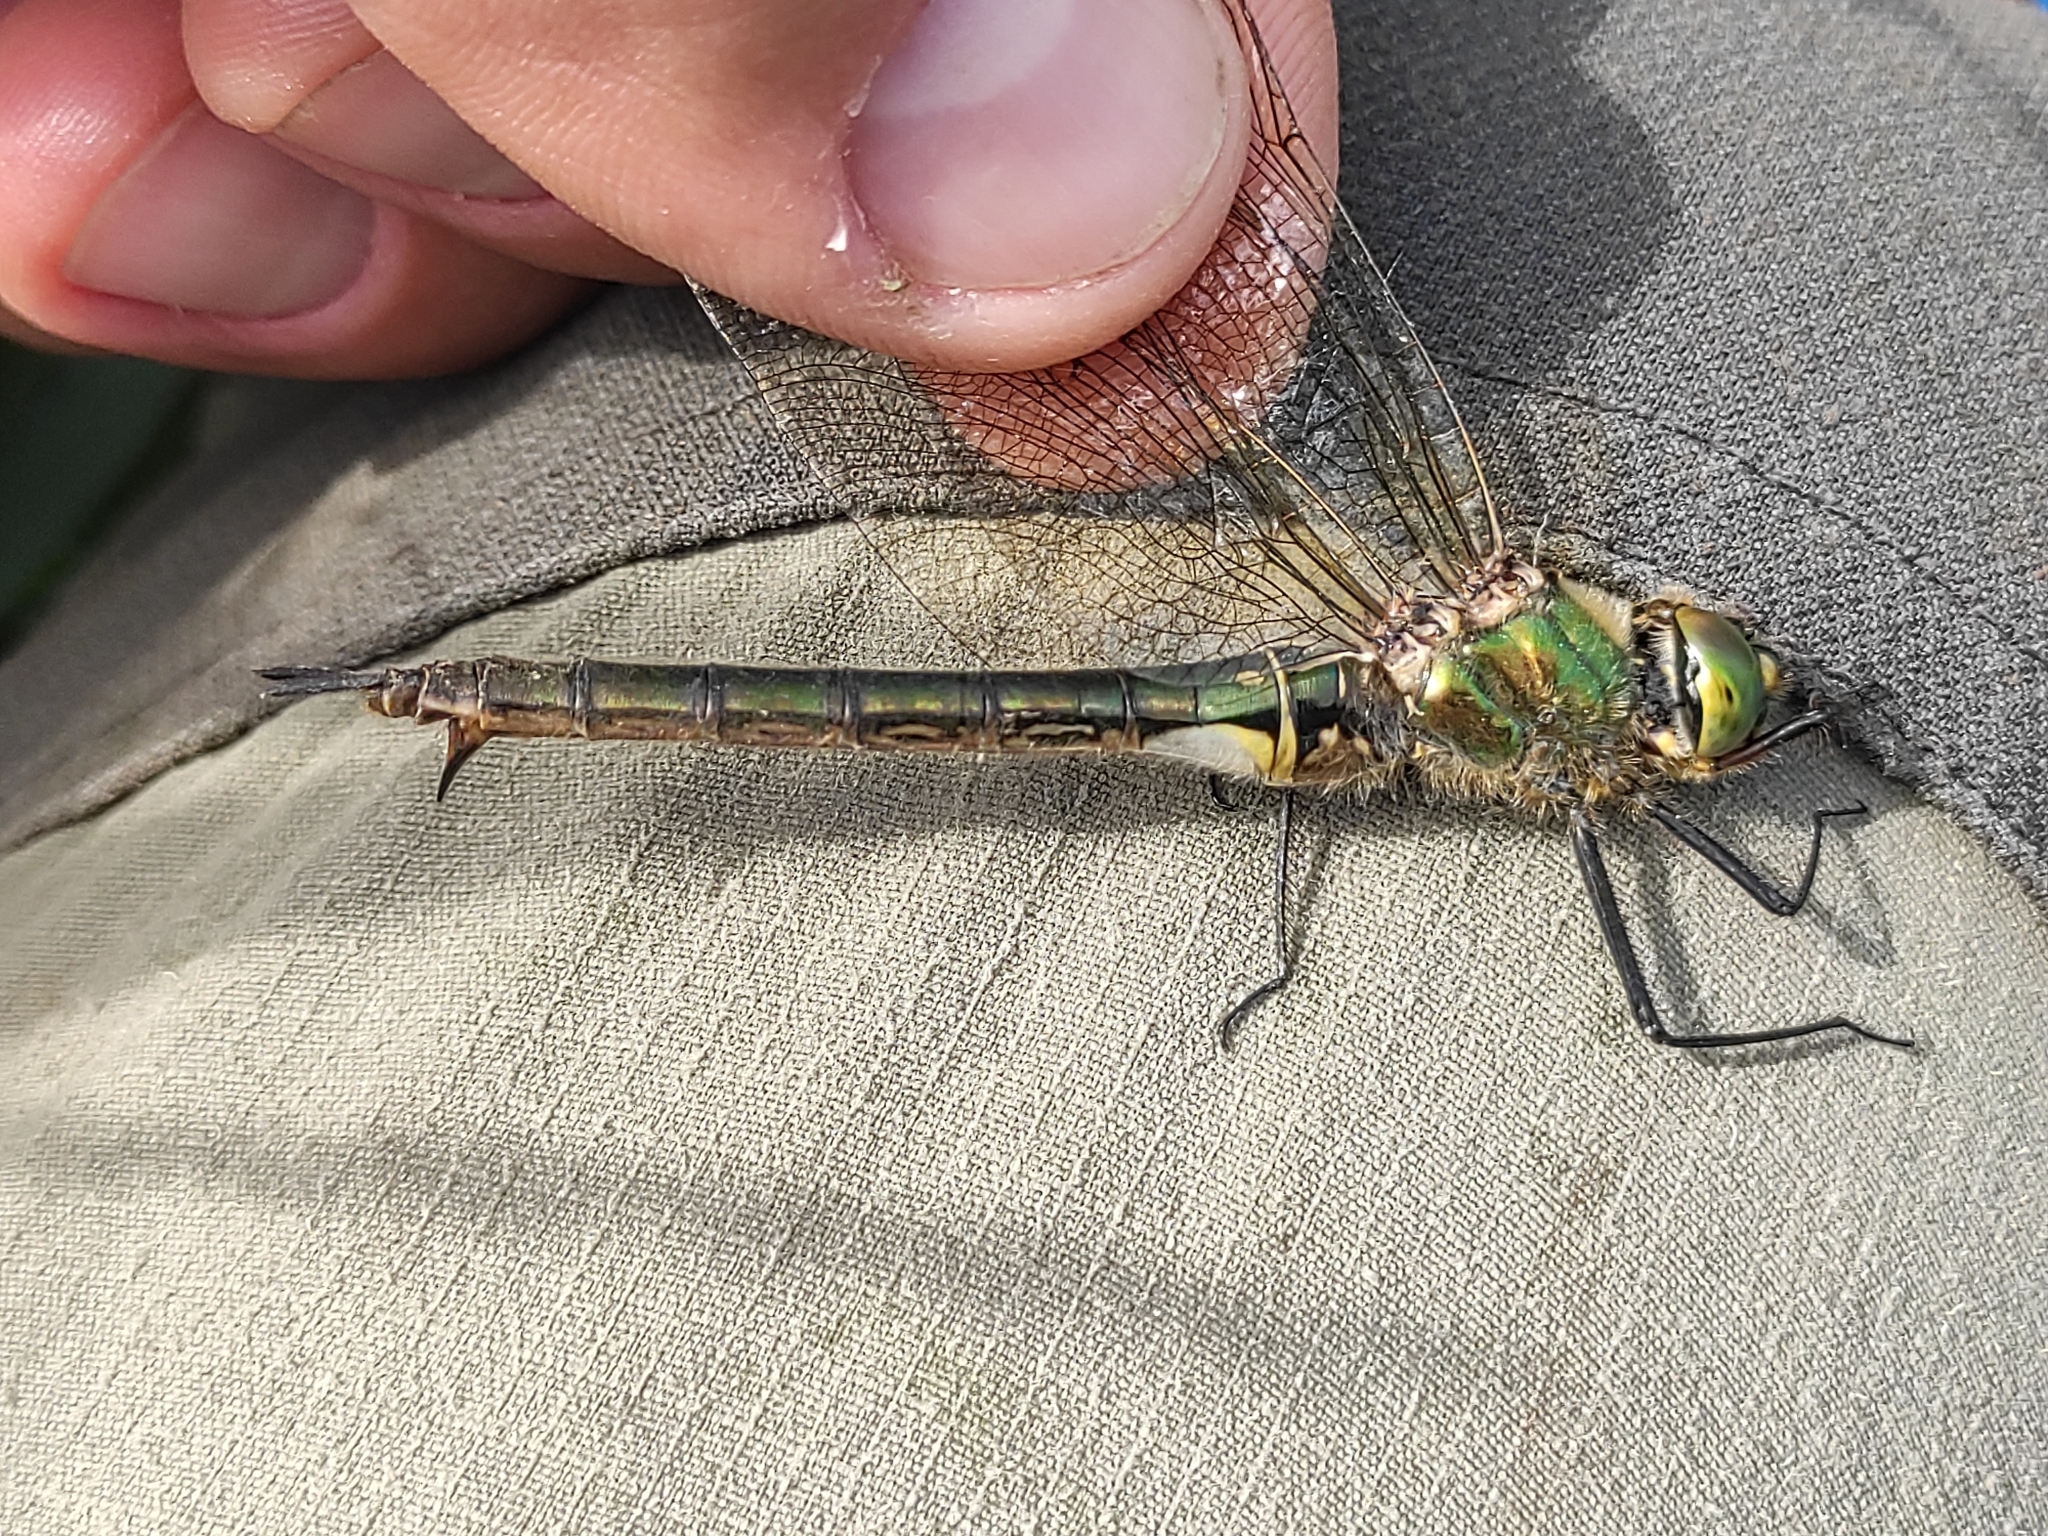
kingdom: Animalia
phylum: Arthropoda
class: Insecta
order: Odonata
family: Corduliidae
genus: Somatochlora
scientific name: Somatochlora metallica
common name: Brilliant emerald
